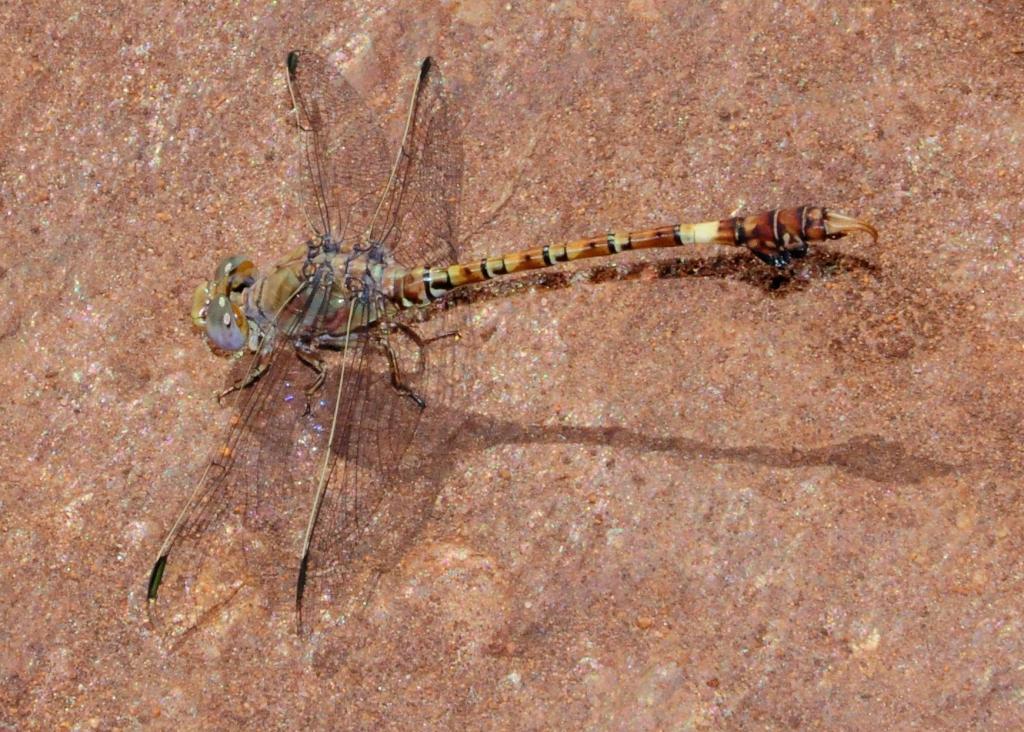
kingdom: Animalia
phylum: Arthropoda
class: Insecta
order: Odonata
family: Gomphidae
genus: Paragomphus
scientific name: Paragomphus genei
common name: Common hooktail
